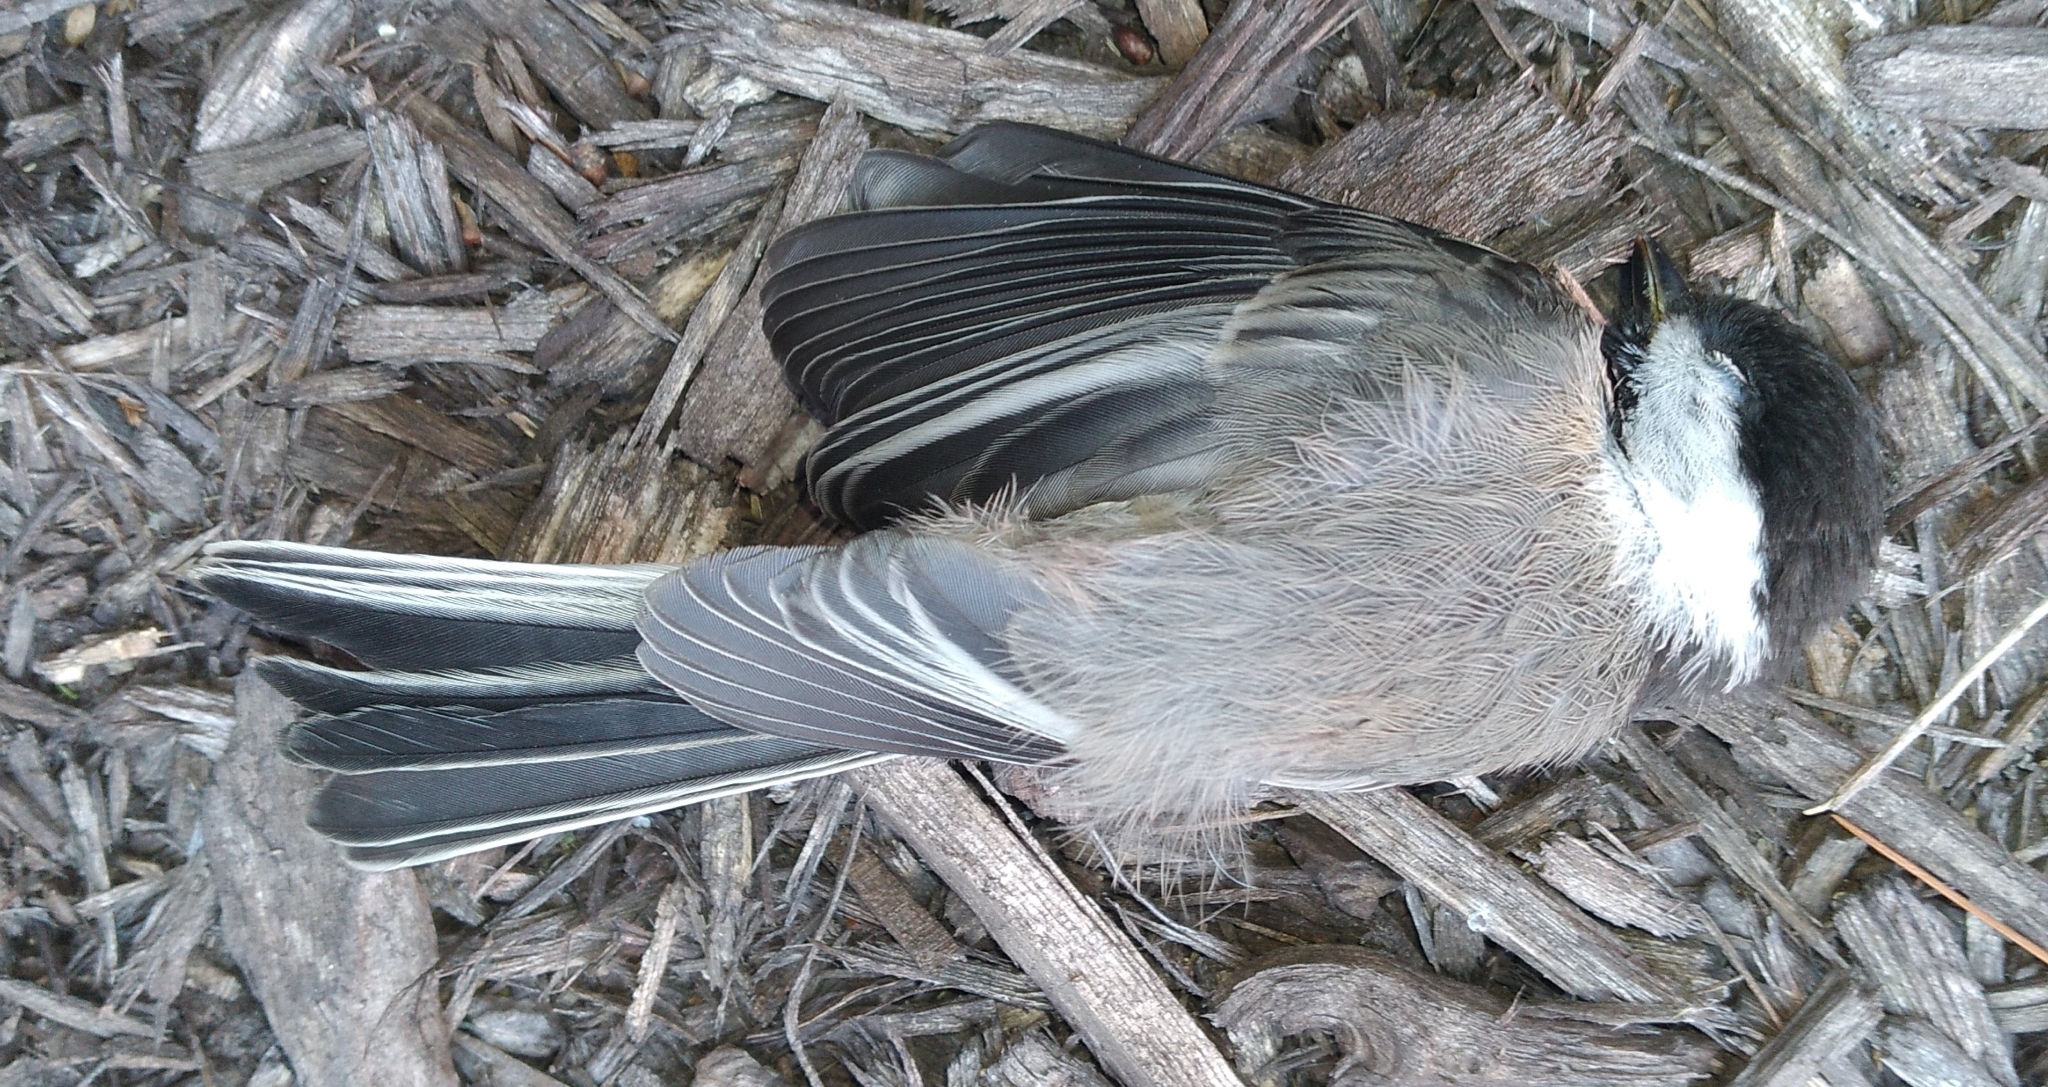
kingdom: Animalia
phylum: Chordata
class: Aves
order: Passeriformes
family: Paridae
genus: Poecile
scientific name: Poecile atricapillus
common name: Black-capped chickadee
